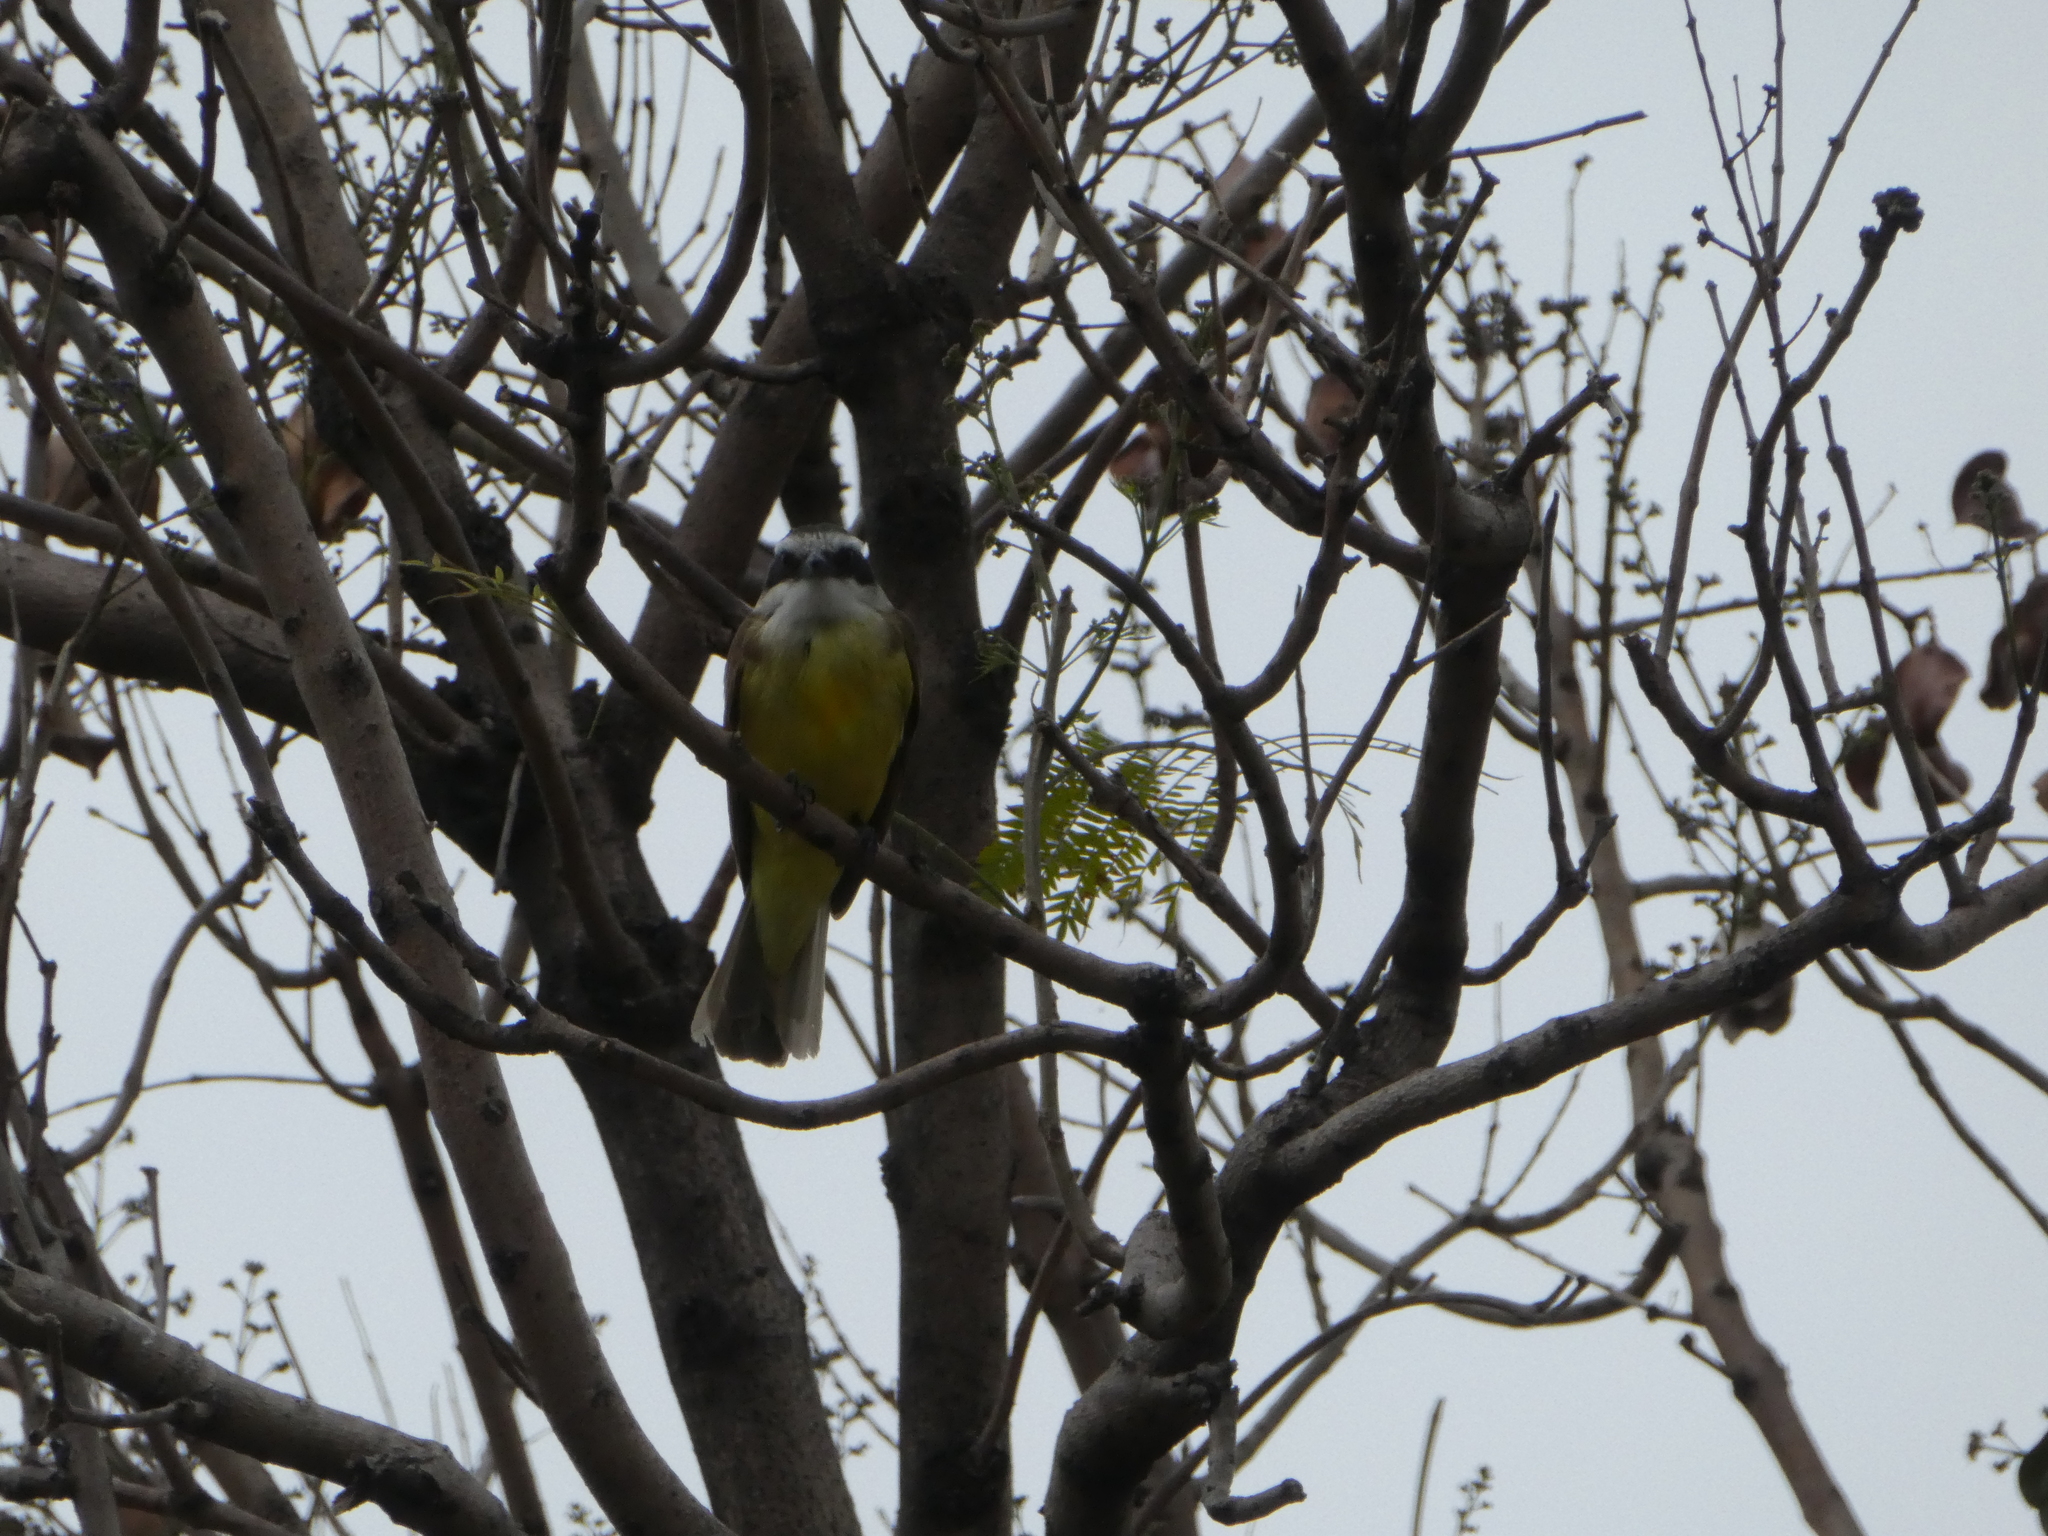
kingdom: Animalia
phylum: Chordata
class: Aves
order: Passeriformes
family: Tyrannidae
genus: Pitangus
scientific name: Pitangus sulphuratus
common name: Great kiskadee
